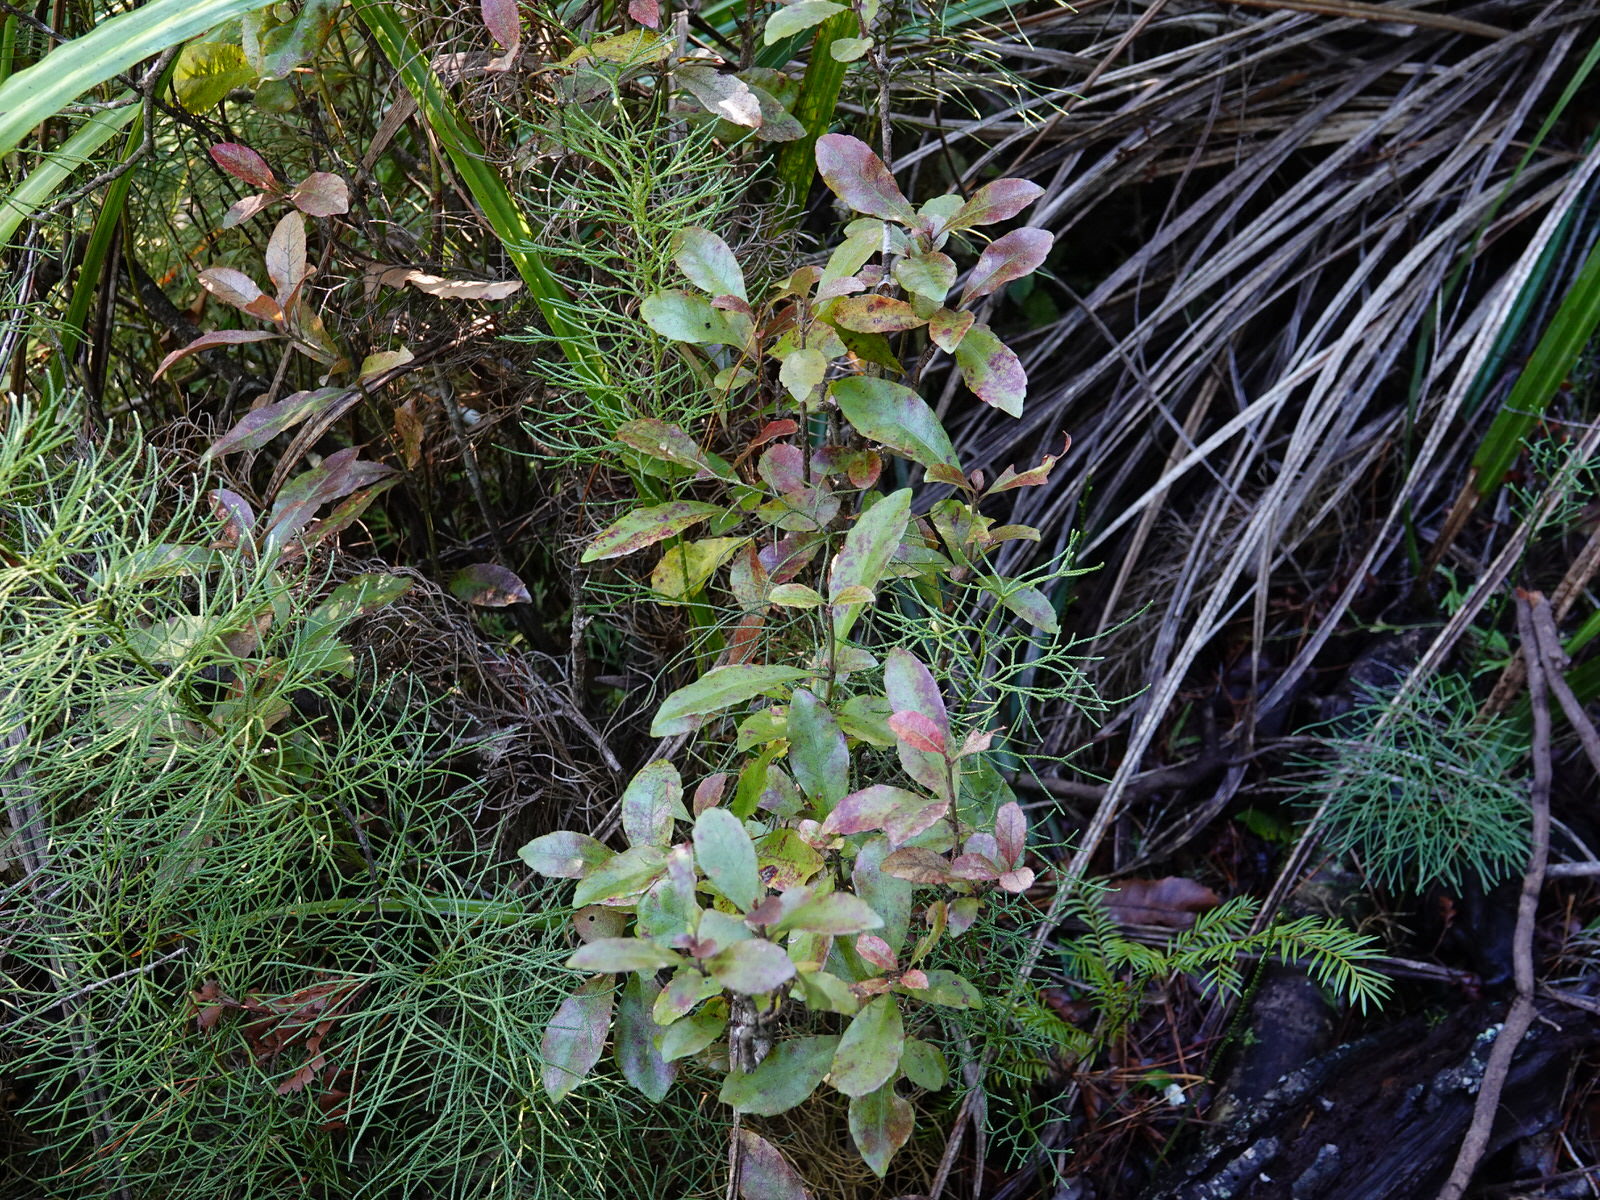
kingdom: Plantae
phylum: Tracheophyta
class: Magnoliopsida
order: Asterales
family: Alseuosmiaceae
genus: Alseuosmia
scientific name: Alseuosmia macrophylla
